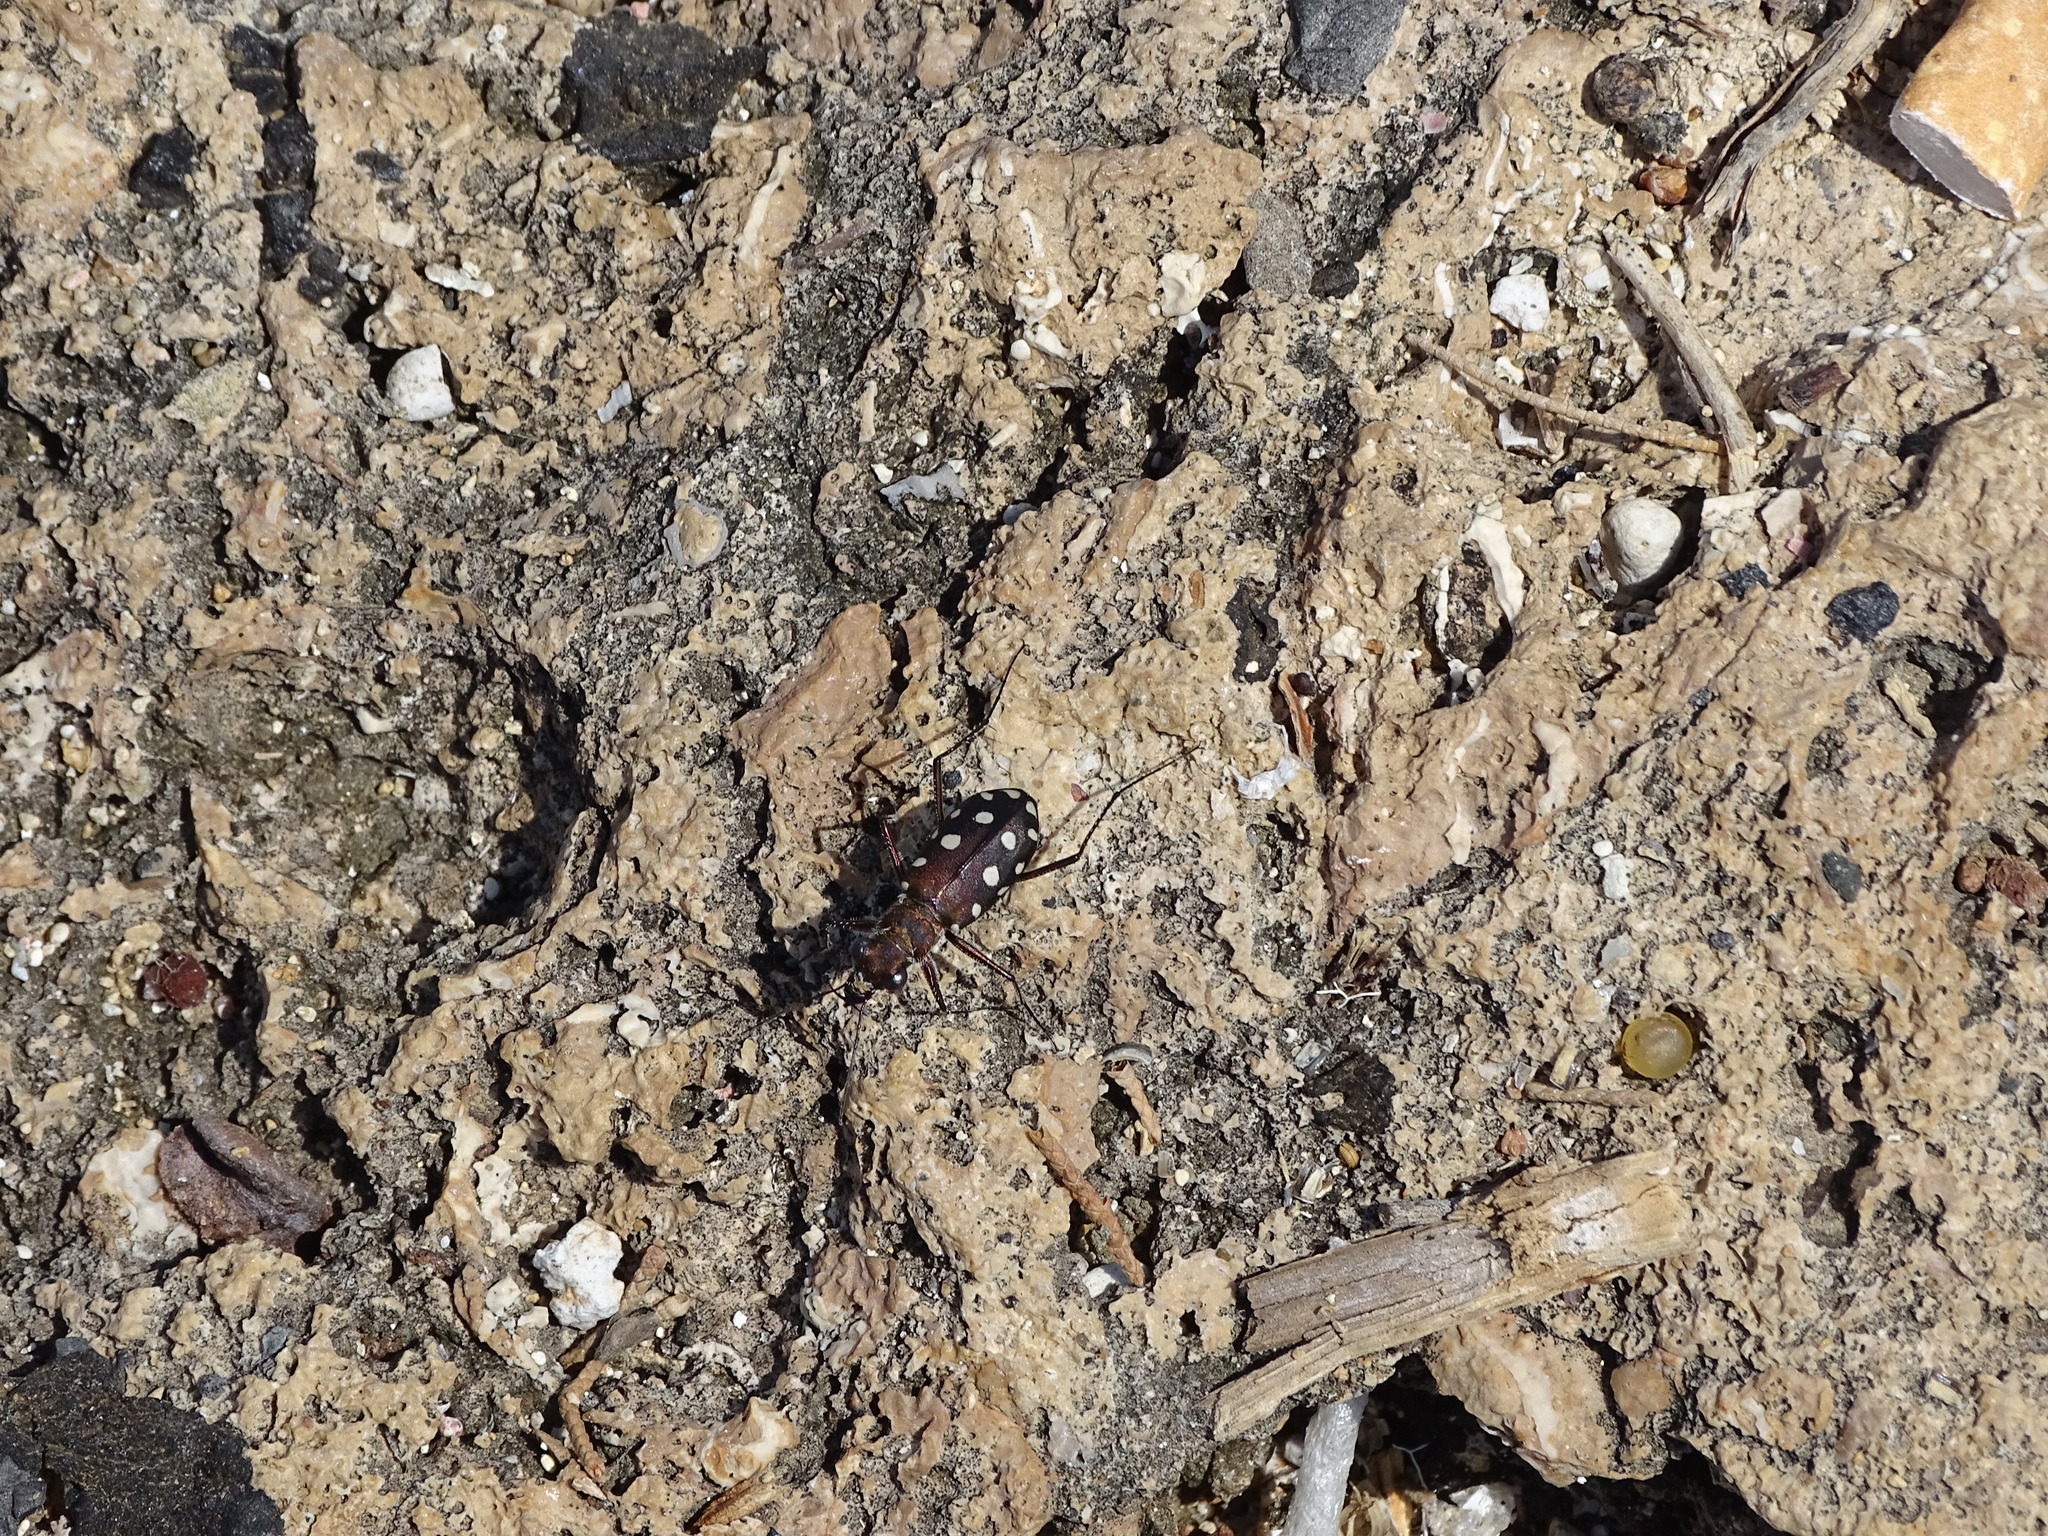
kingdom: Animalia
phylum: Arthropoda
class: Insecta
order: Coleoptera
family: Carabidae
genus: Cicindela
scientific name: Cicindela aphrodisia
